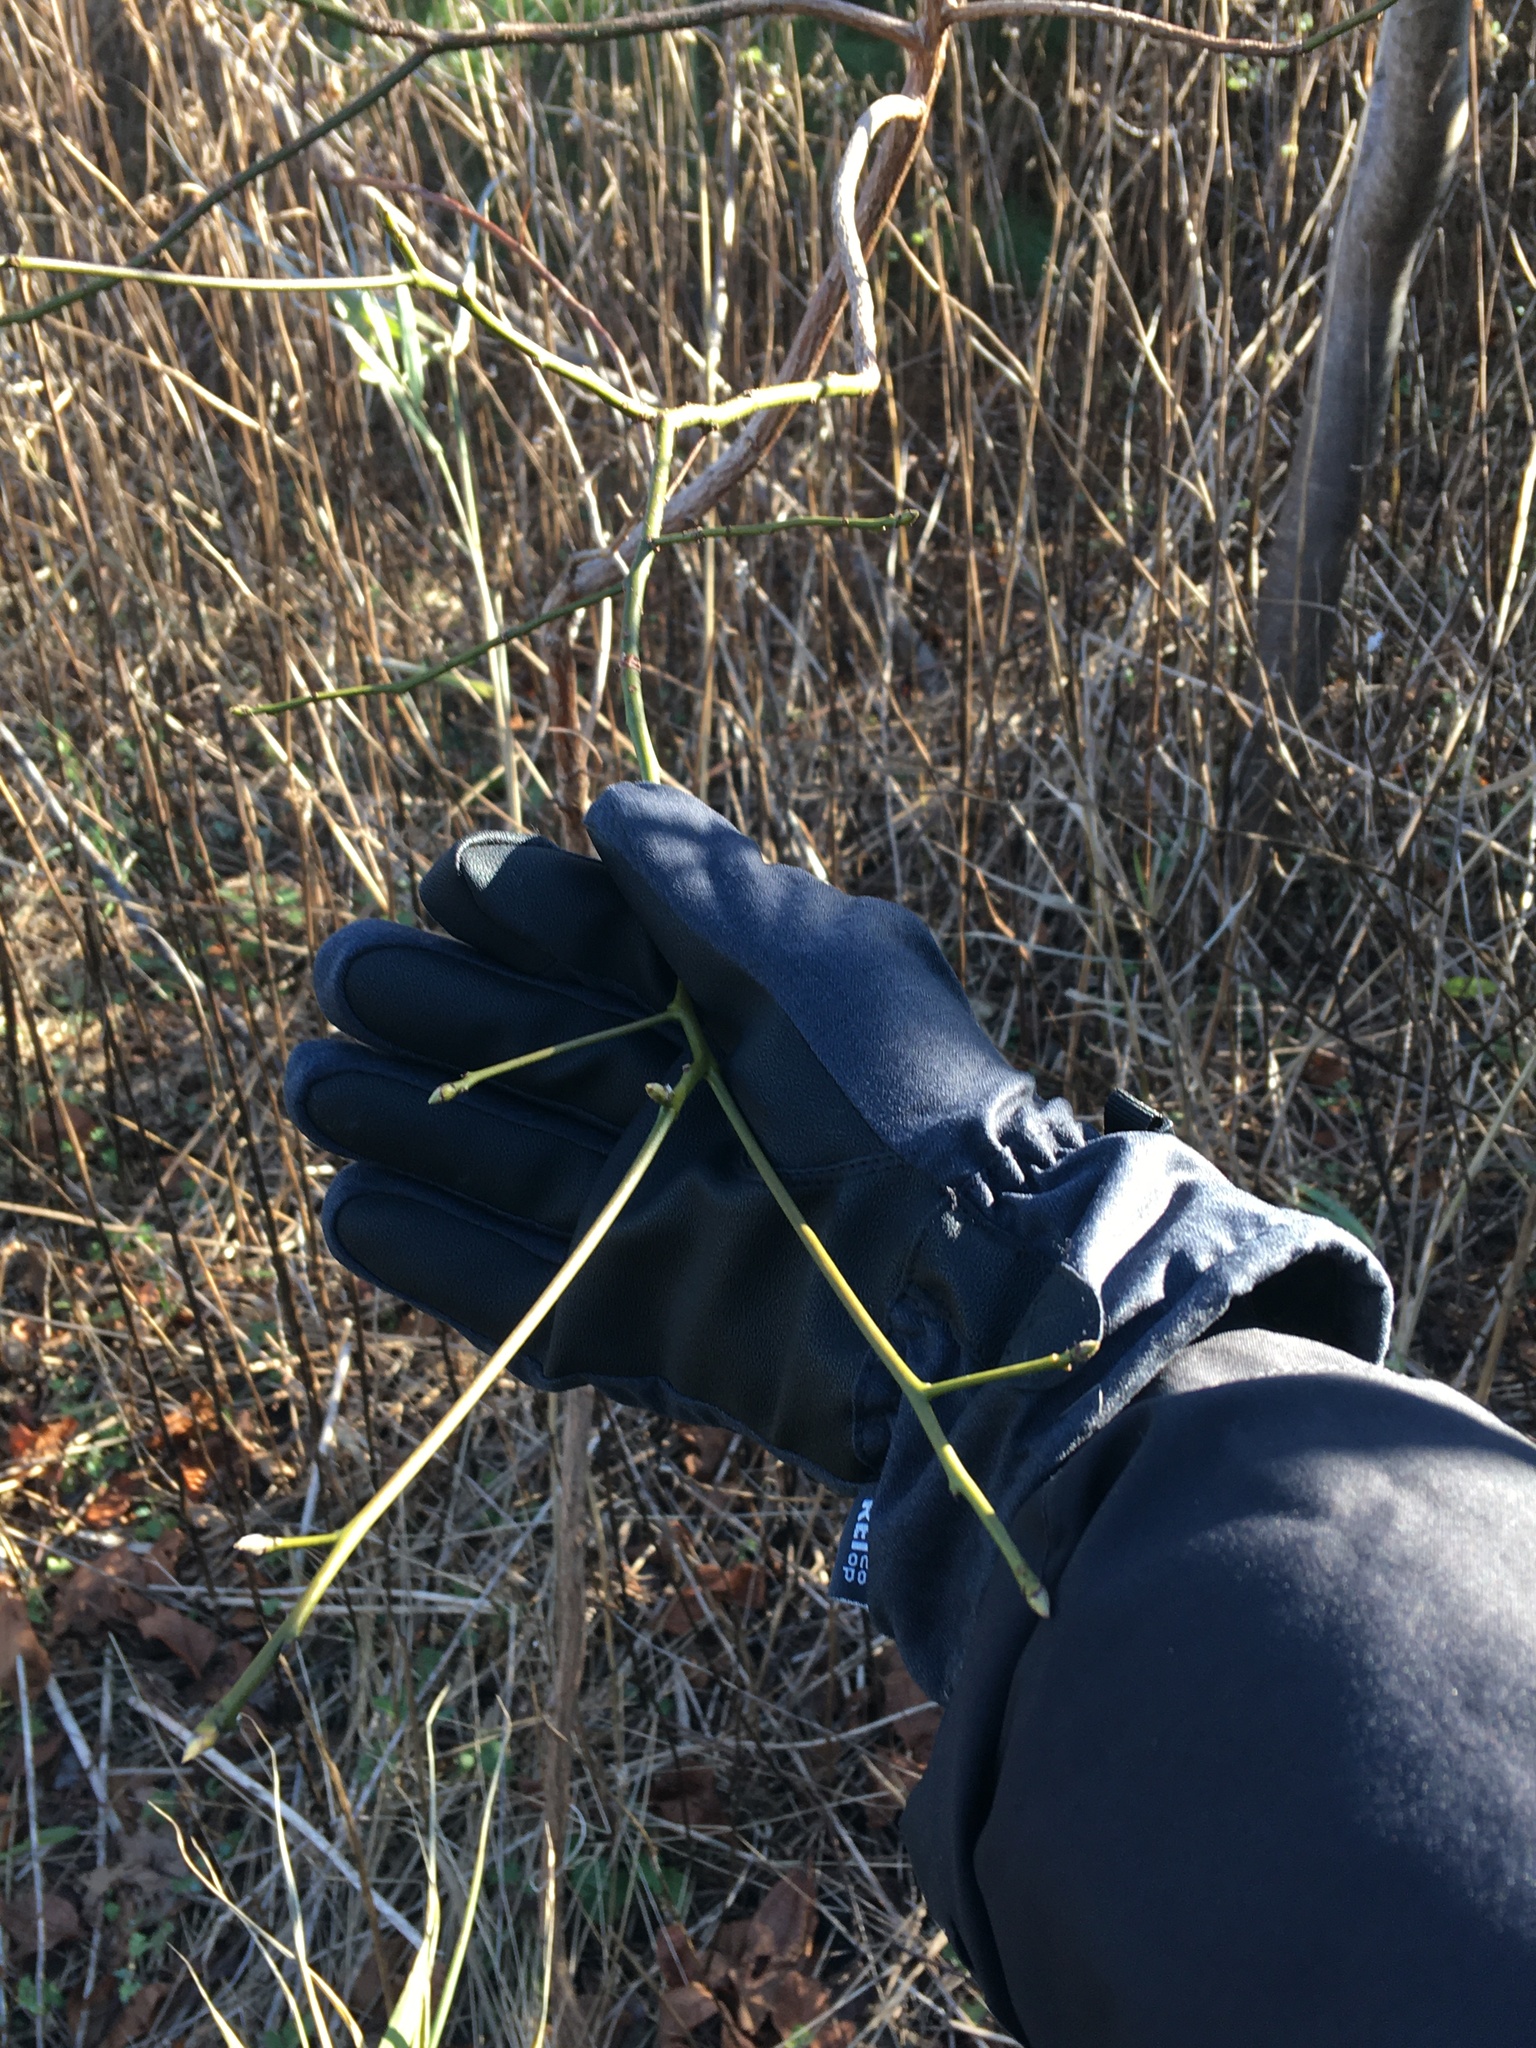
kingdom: Plantae
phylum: Tracheophyta
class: Magnoliopsida
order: Laurales
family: Lauraceae
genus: Sassafras
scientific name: Sassafras albidum
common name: Sassafras
